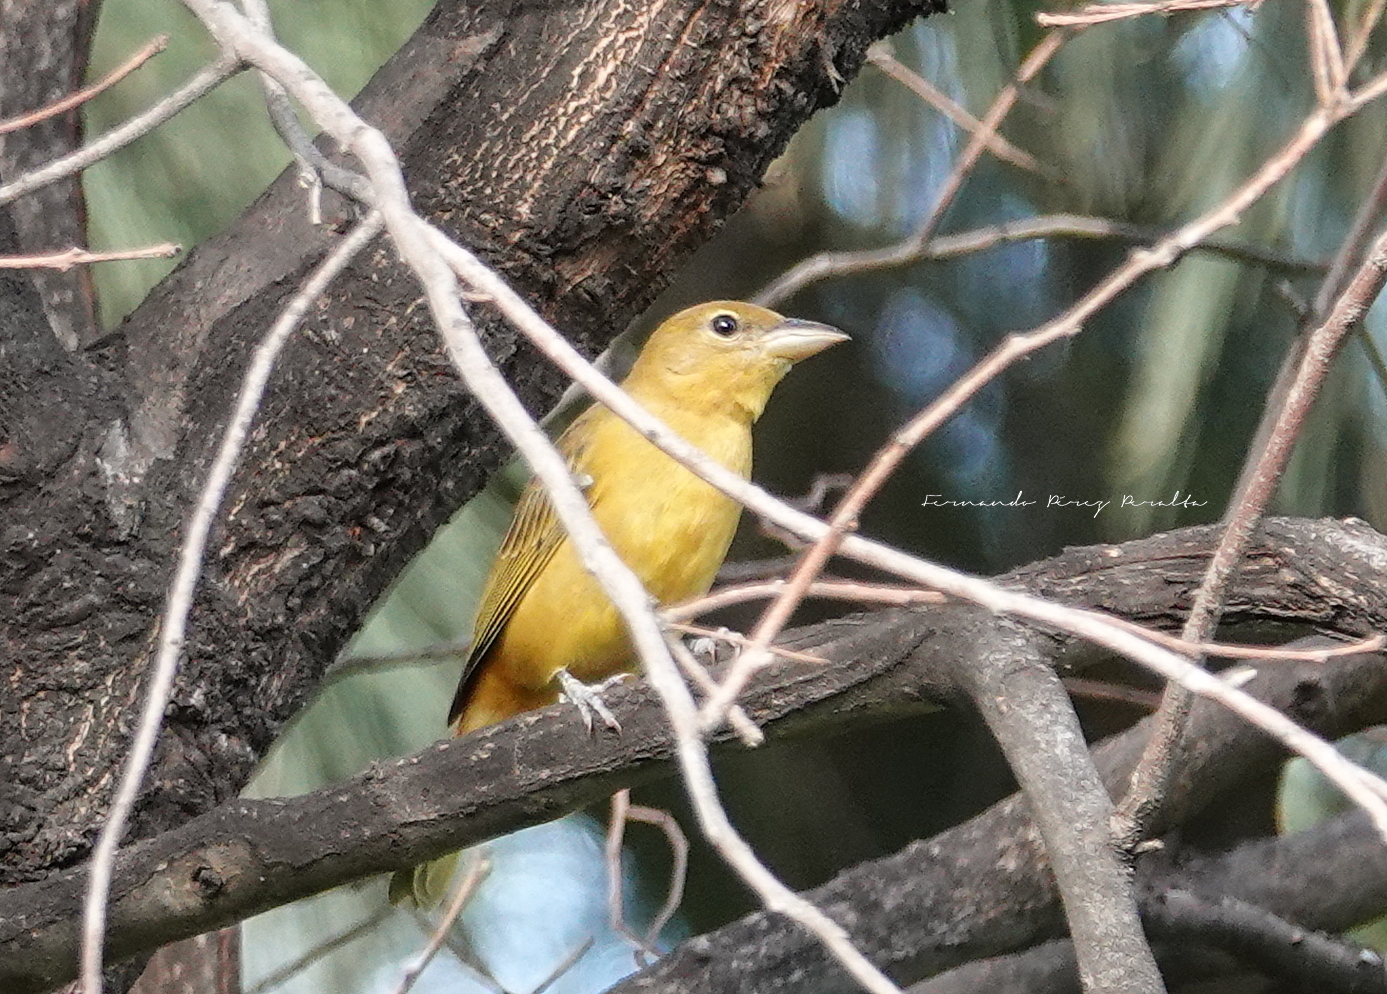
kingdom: Animalia
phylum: Chordata
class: Aves
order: Passeriformes
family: Cardinalidae
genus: Piranga
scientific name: Piranga rubra
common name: Summer tanager
